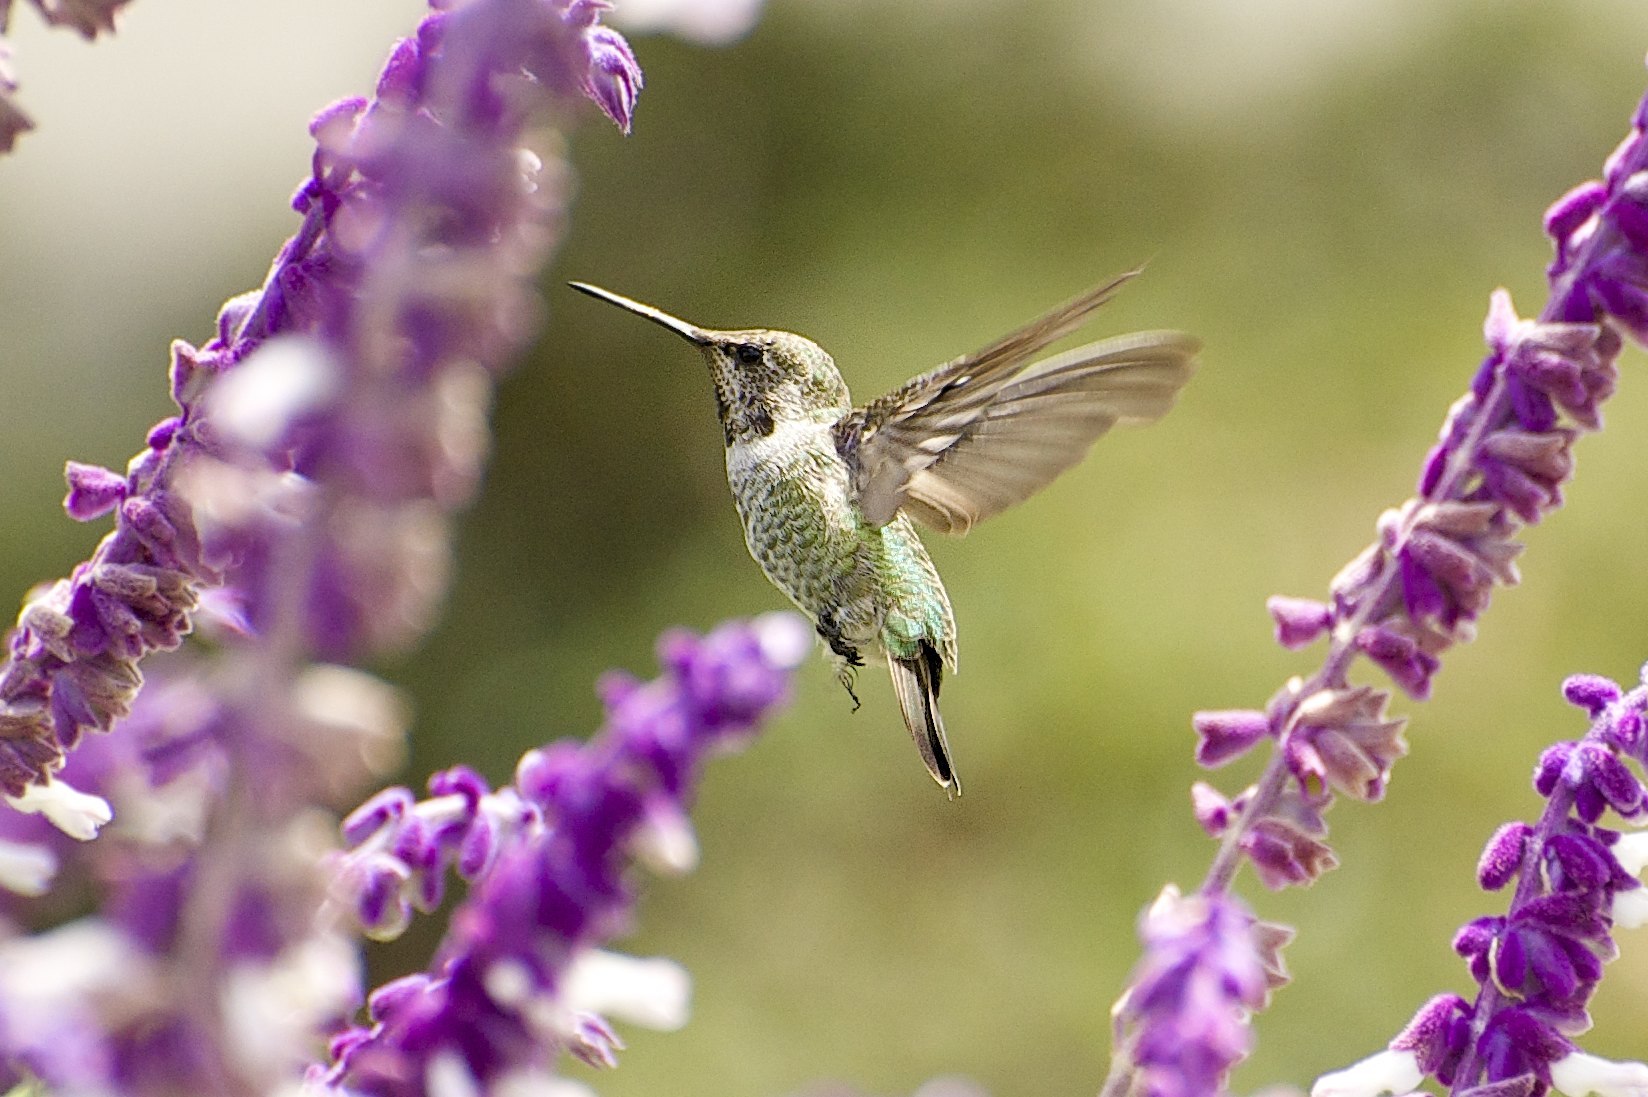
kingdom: Animalia
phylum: Chordata
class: Aves
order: Apodiformes
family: Trochilidae
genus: Calypte
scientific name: Calypte anna
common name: Anna's hummingbird
